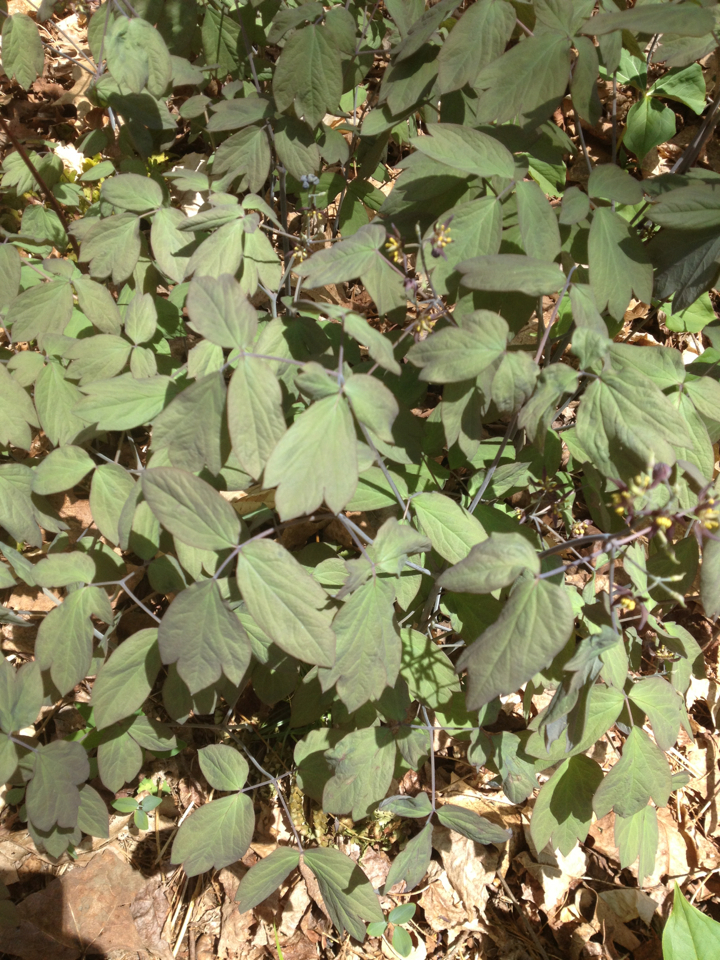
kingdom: Plantae
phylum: Tracheophyta
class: Magnoliopsida
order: Ranunculales
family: Berberidaceae
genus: Caulophyllum
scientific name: Caulophyllum giganteum
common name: Blue cohosh
